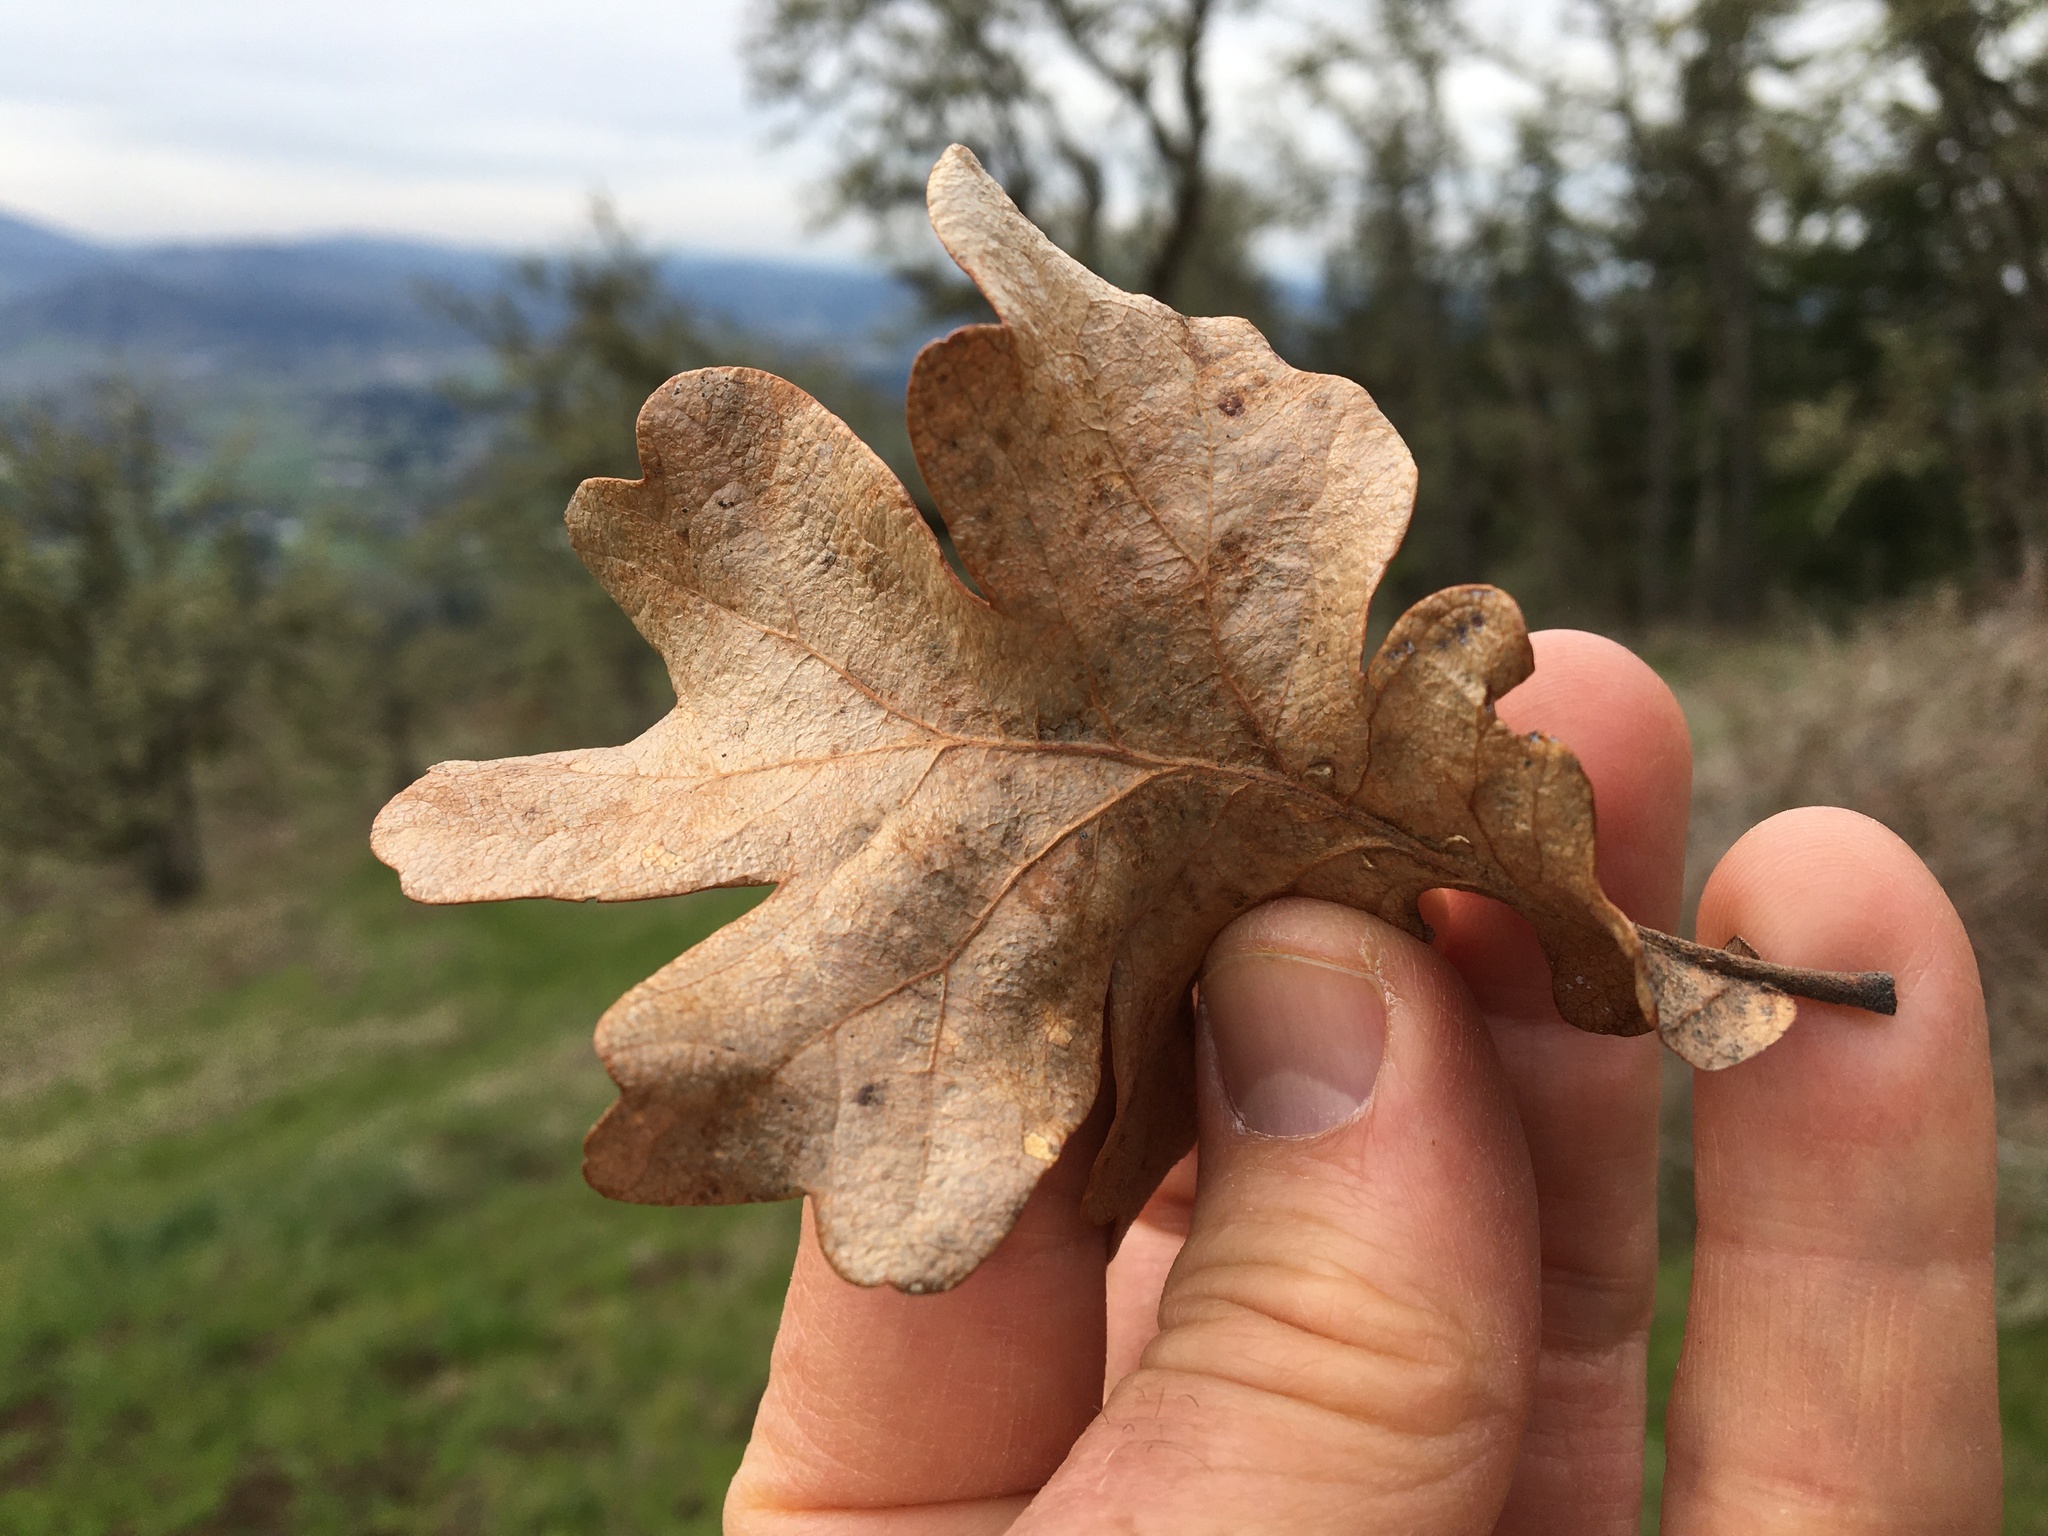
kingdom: Plantae
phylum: Tracheophyta
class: Magnoliopsida
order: Fagales
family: Fagaceae
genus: Quercus
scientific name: Quercus garryana
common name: Garry oak
